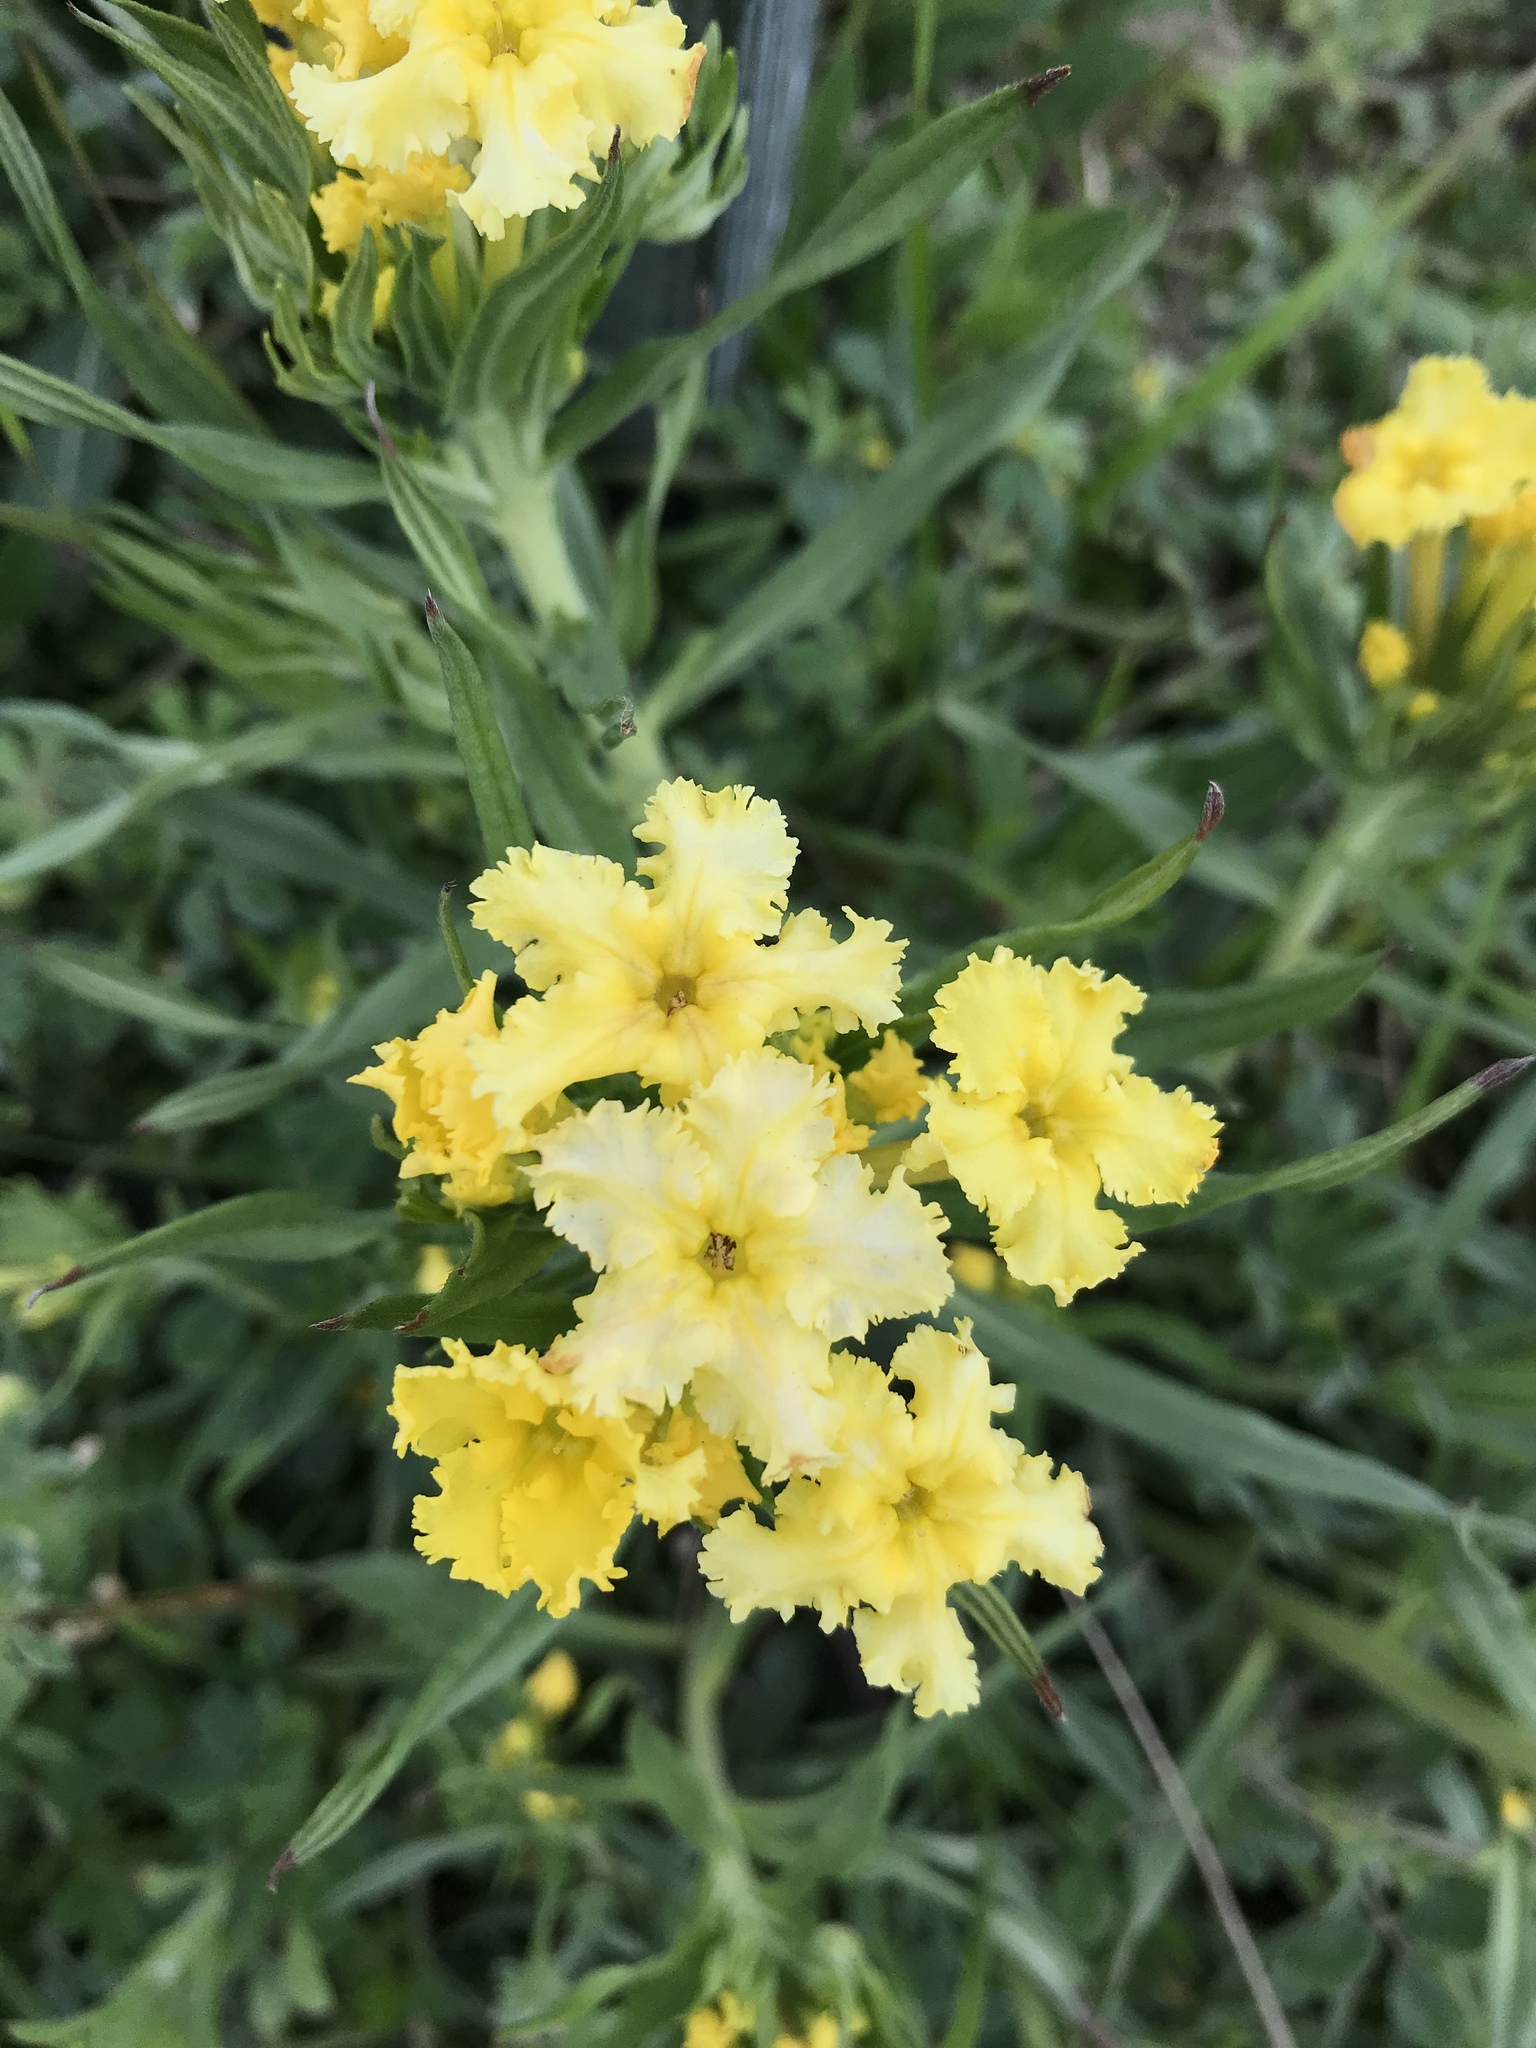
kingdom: Plantae
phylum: Tracheophyta
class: Magnoliopsida
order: Boraginales
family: Boraginaceae
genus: Lithospermum
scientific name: Lithospermum incisum
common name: Fringed gromwell
